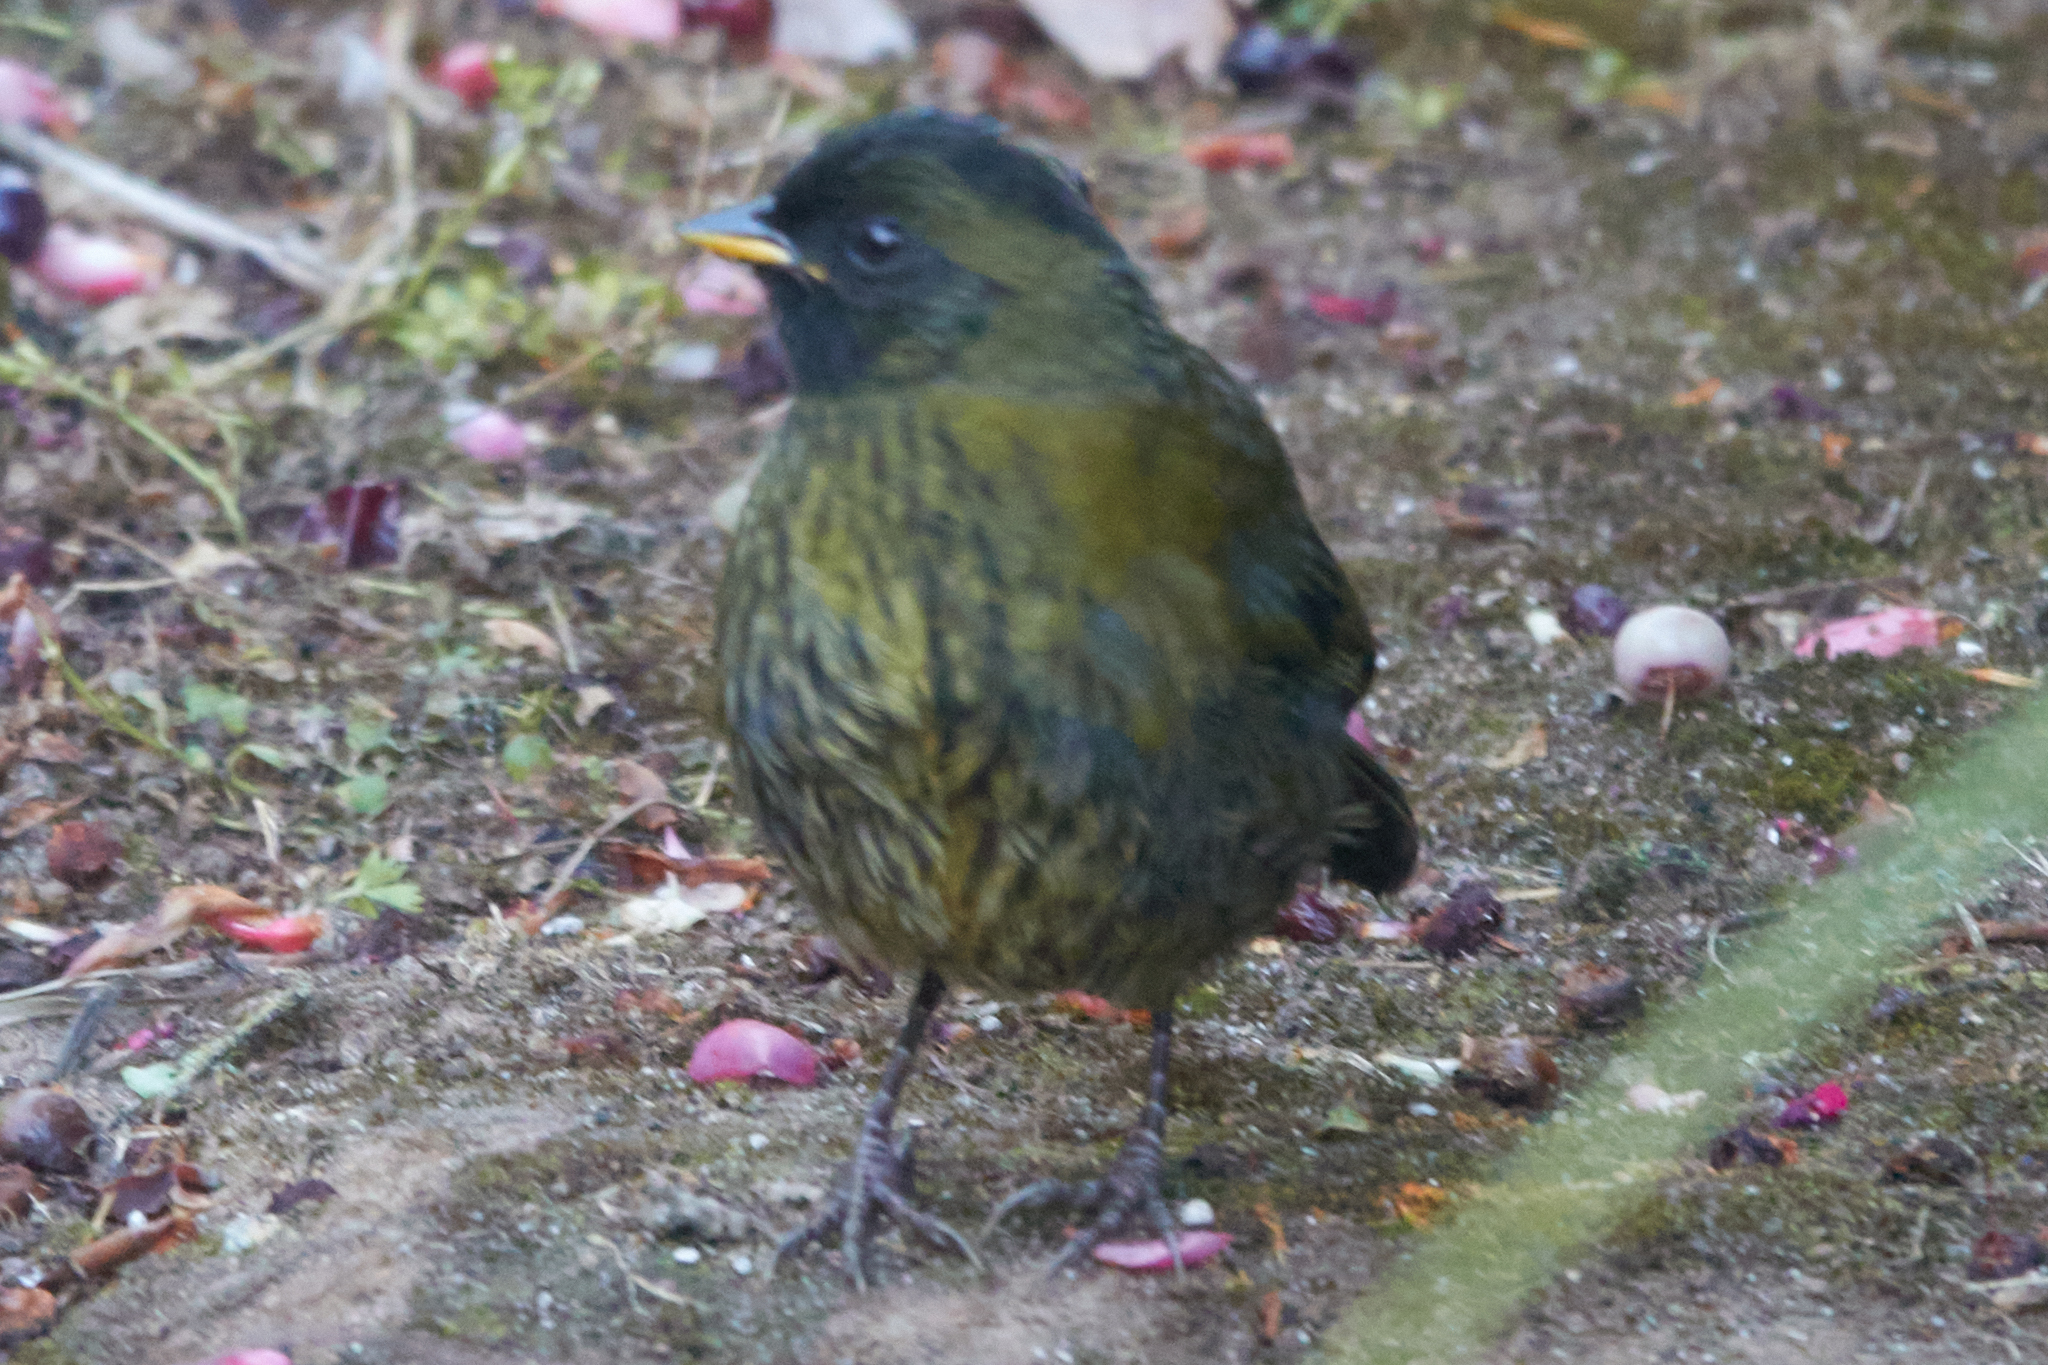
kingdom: Animalia
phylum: Chordata
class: Aves
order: Passeriformes
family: Passerellidae
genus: Pezopetes
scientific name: Pezopetes capitalis
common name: Large-footed finch
